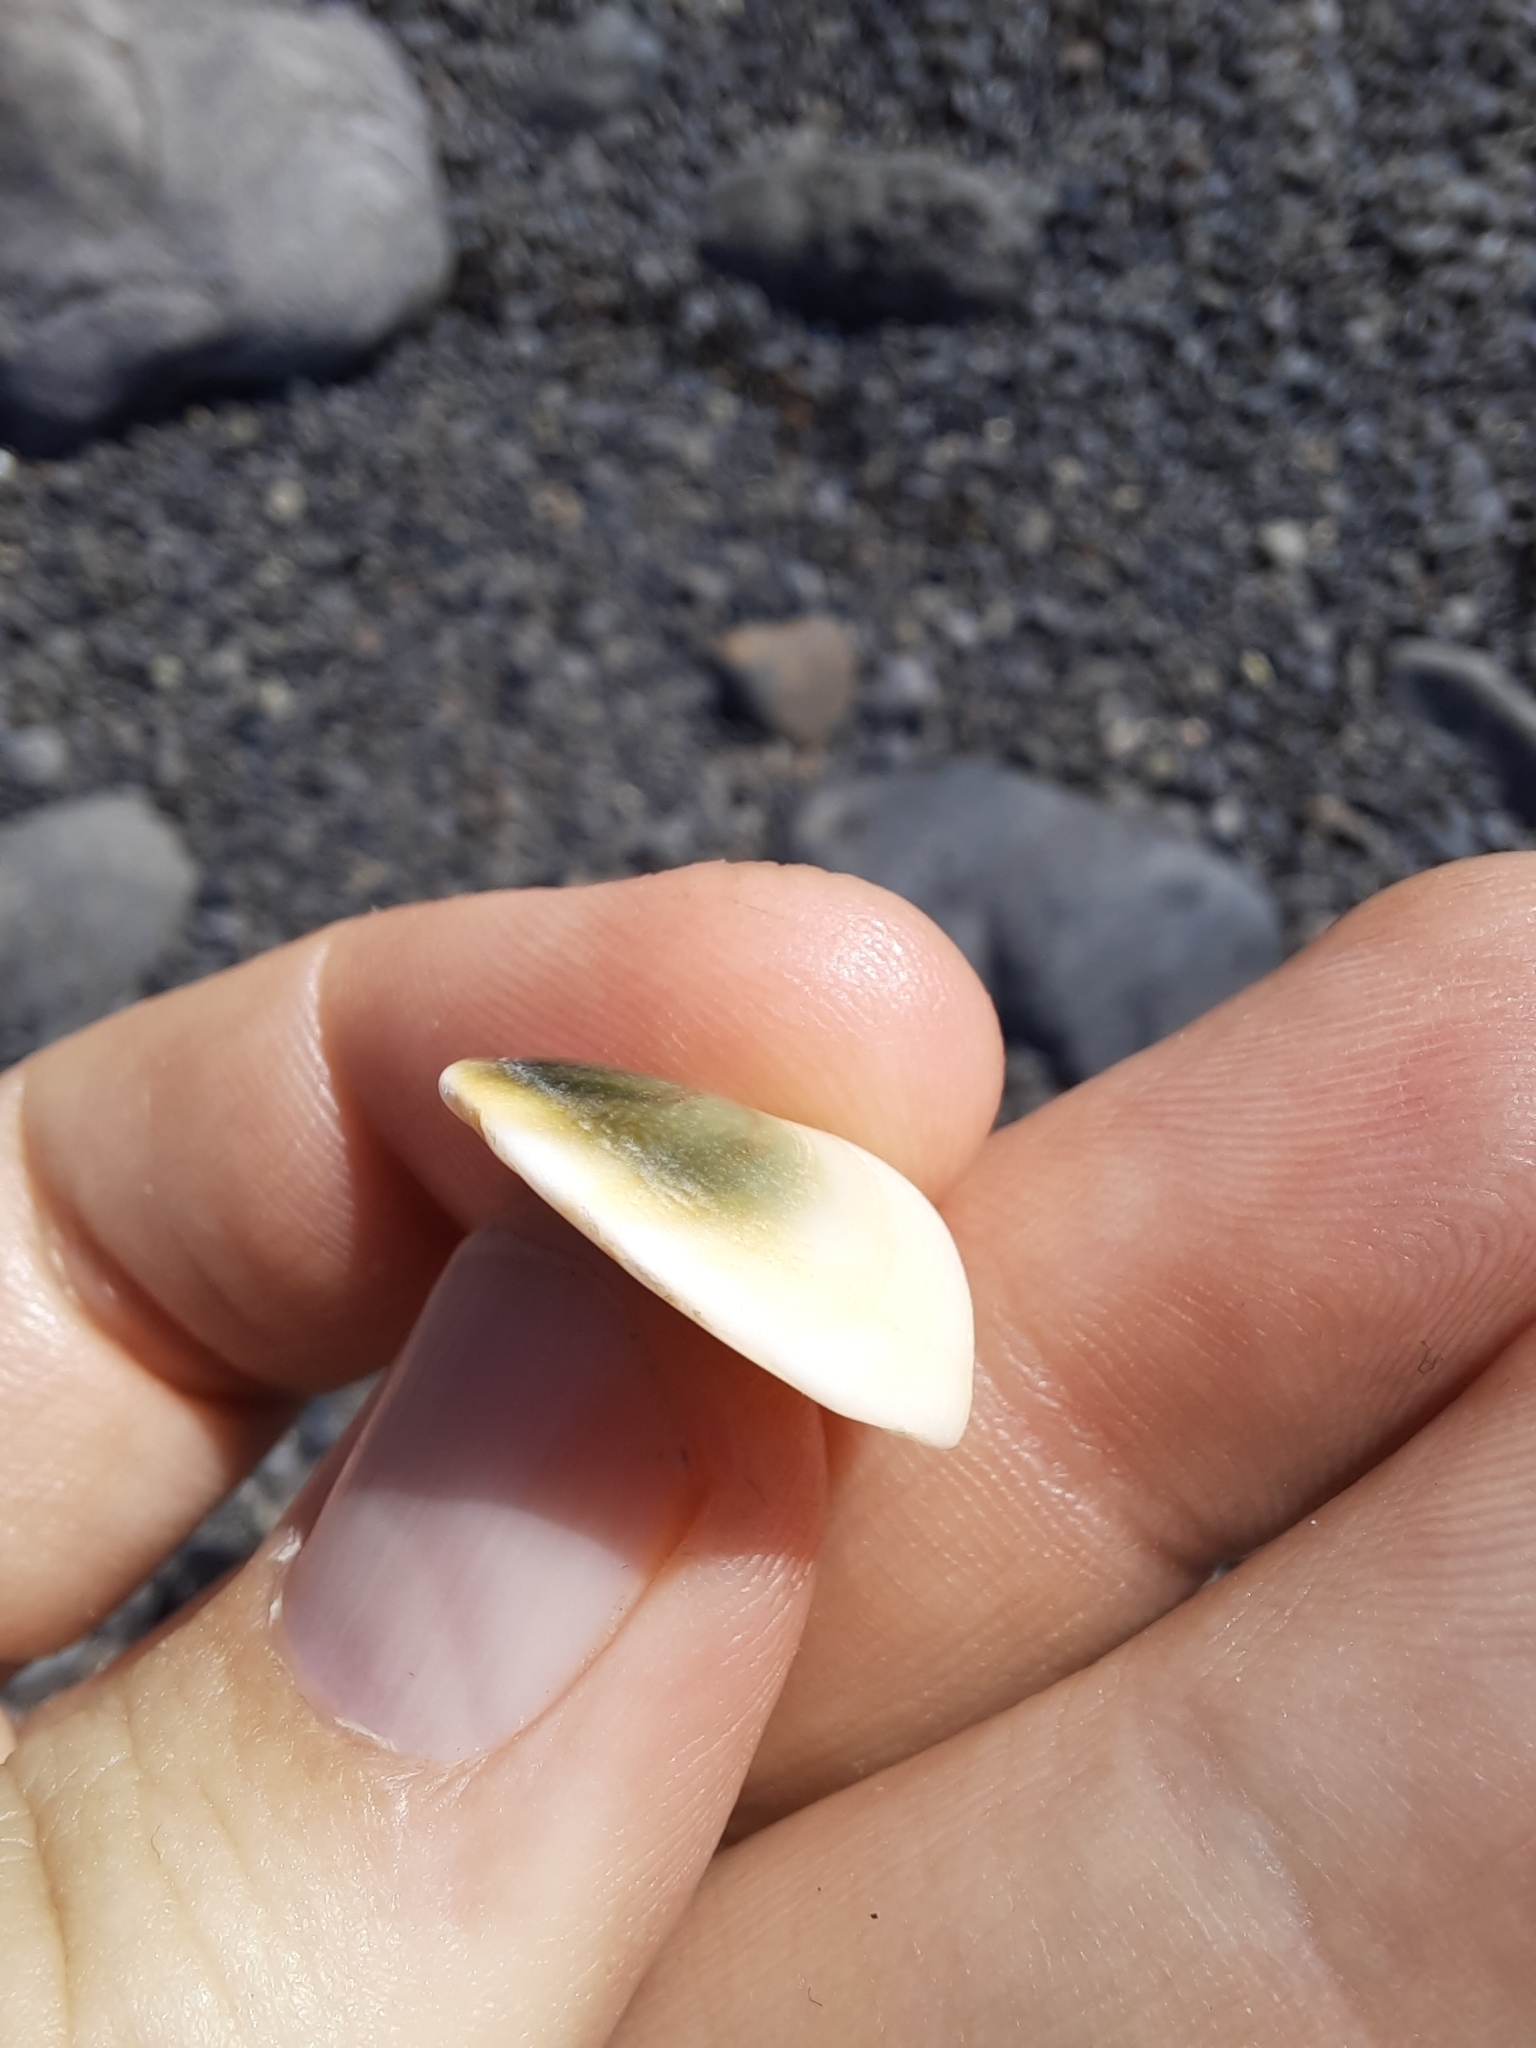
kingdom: Animalia
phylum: Mollusca
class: Gastropoda
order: Trochida
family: Turbinidae
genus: Lunella
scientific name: Lunella smaragda
